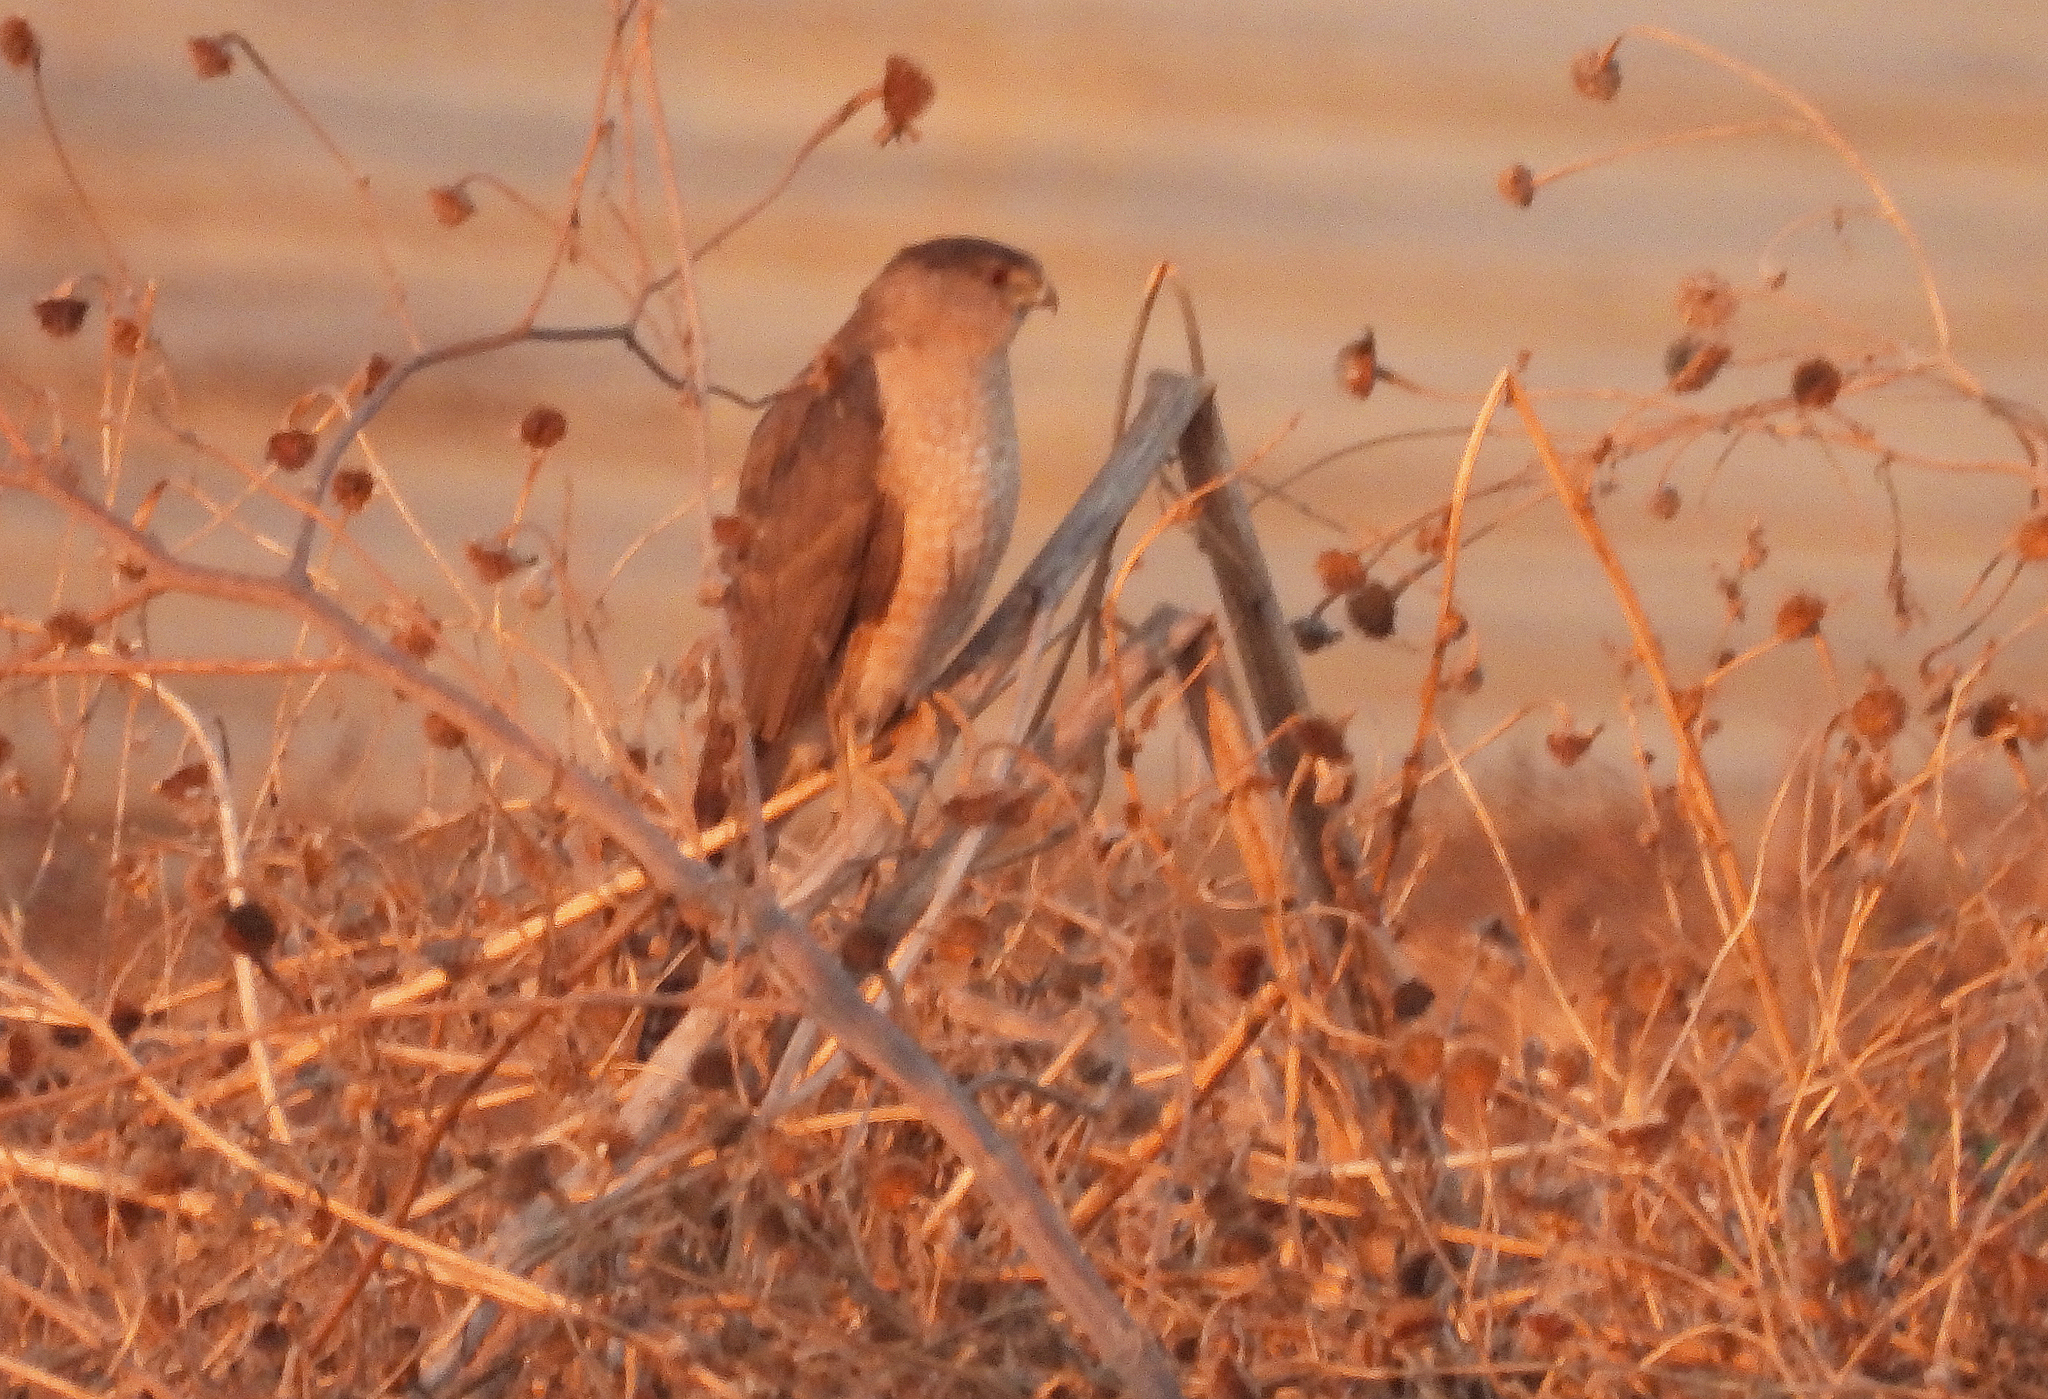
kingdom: Animalia
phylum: Chordata
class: Aves
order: Accipitriformes
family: Accipitridae
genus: Accipiter
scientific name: Accipiter cooperii
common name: Cooper's hawk
